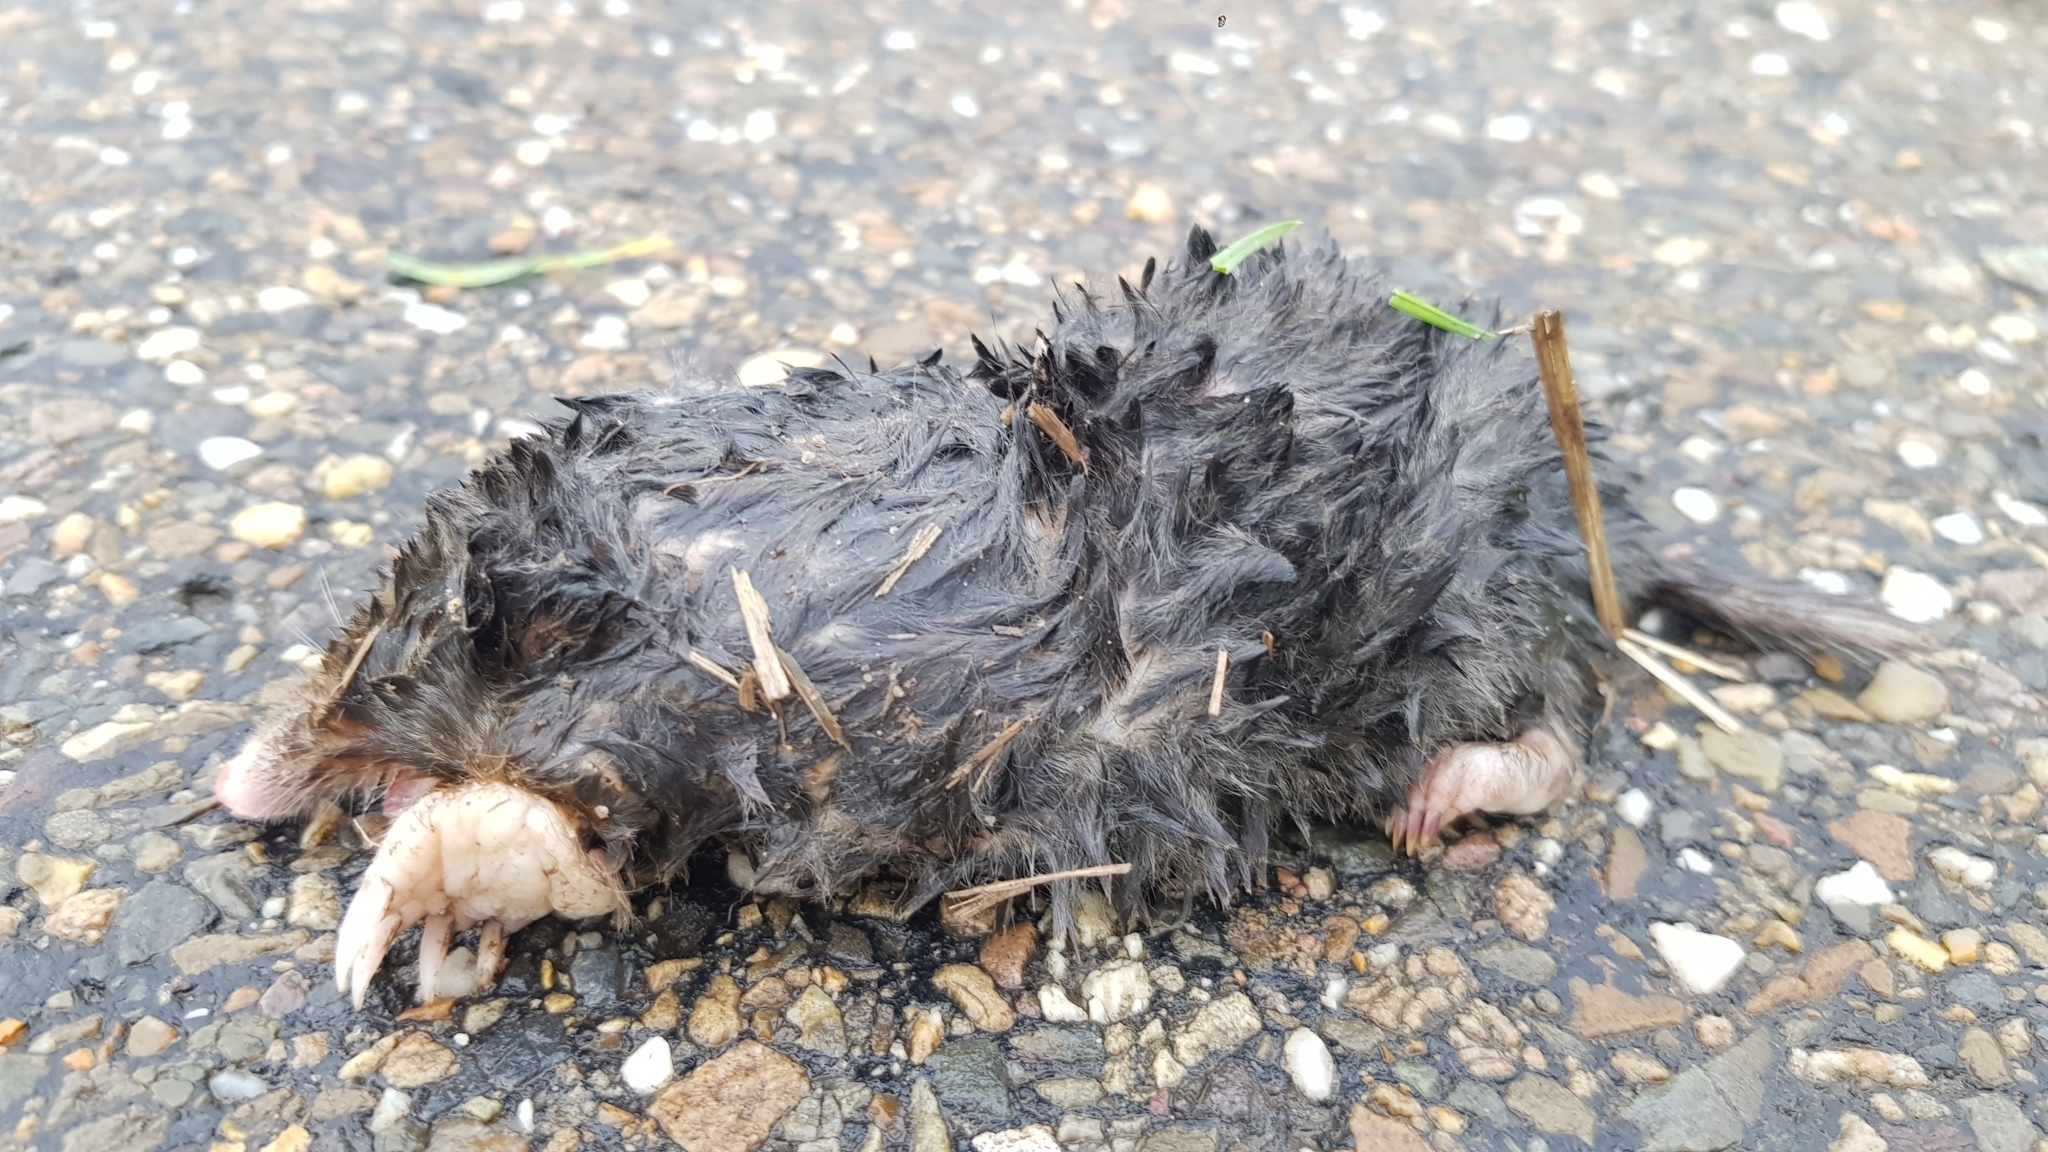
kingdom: Animalia
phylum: Chordata
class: Mammalia
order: Soricomorpha
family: Talpidae
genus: Talpa
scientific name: Talpa europaea
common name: European mole
